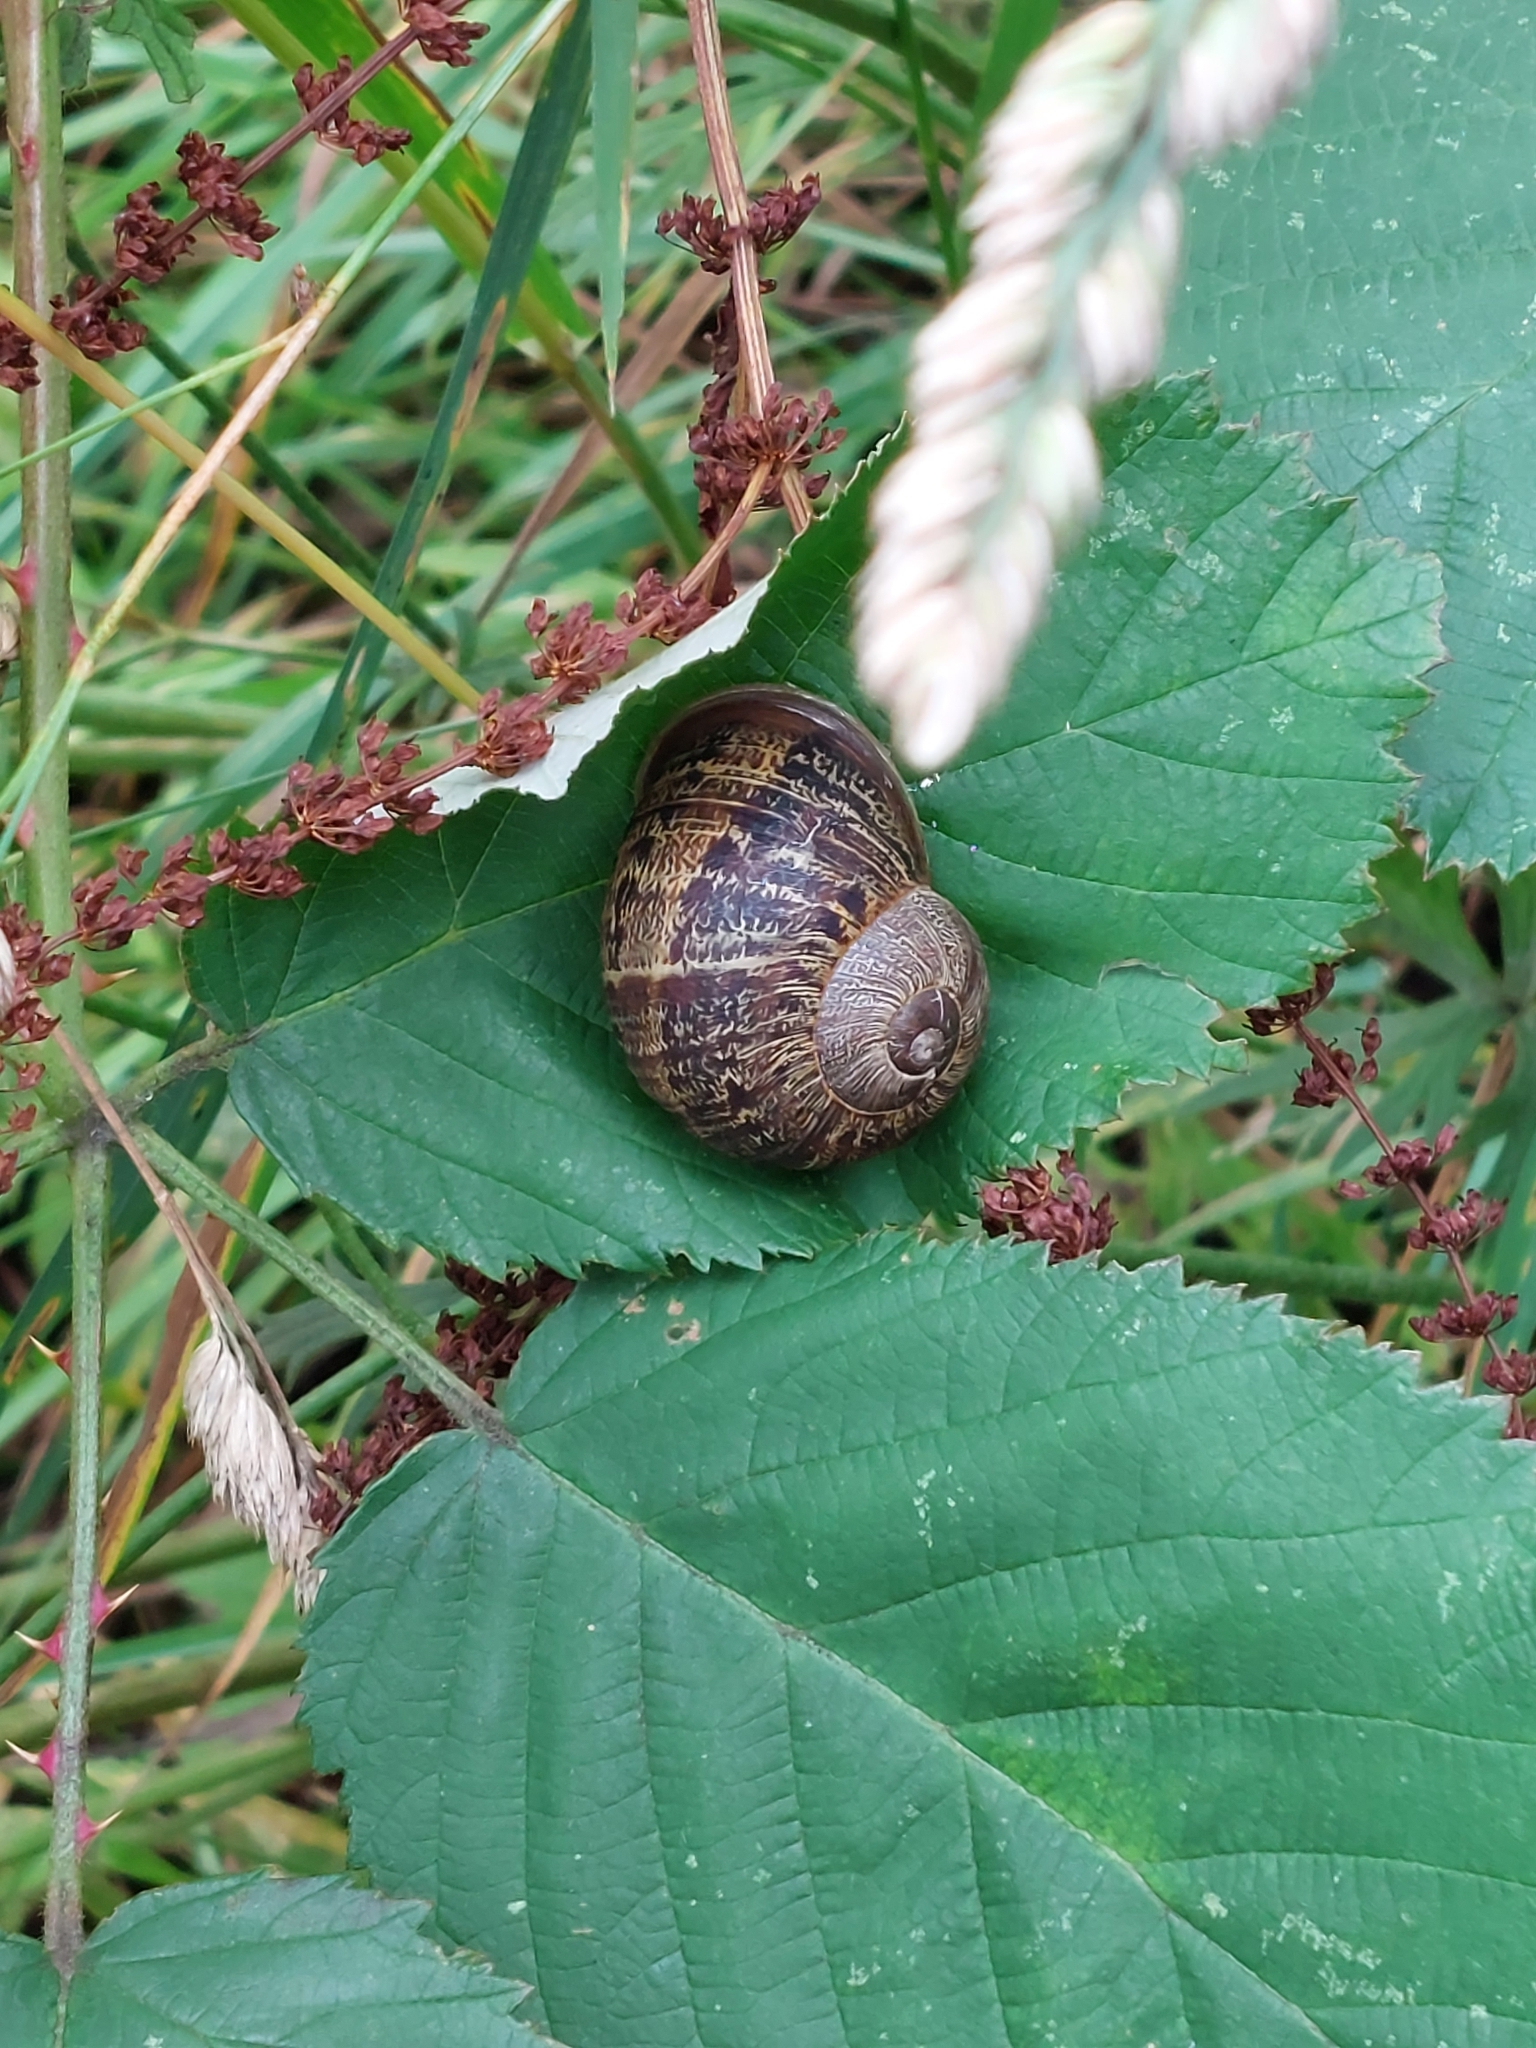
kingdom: Animalia
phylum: Mollusca
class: Gastropoda
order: Stylommatophora
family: Helicidae
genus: Cornu
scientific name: Cornu aspersum
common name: Brown garden snail
